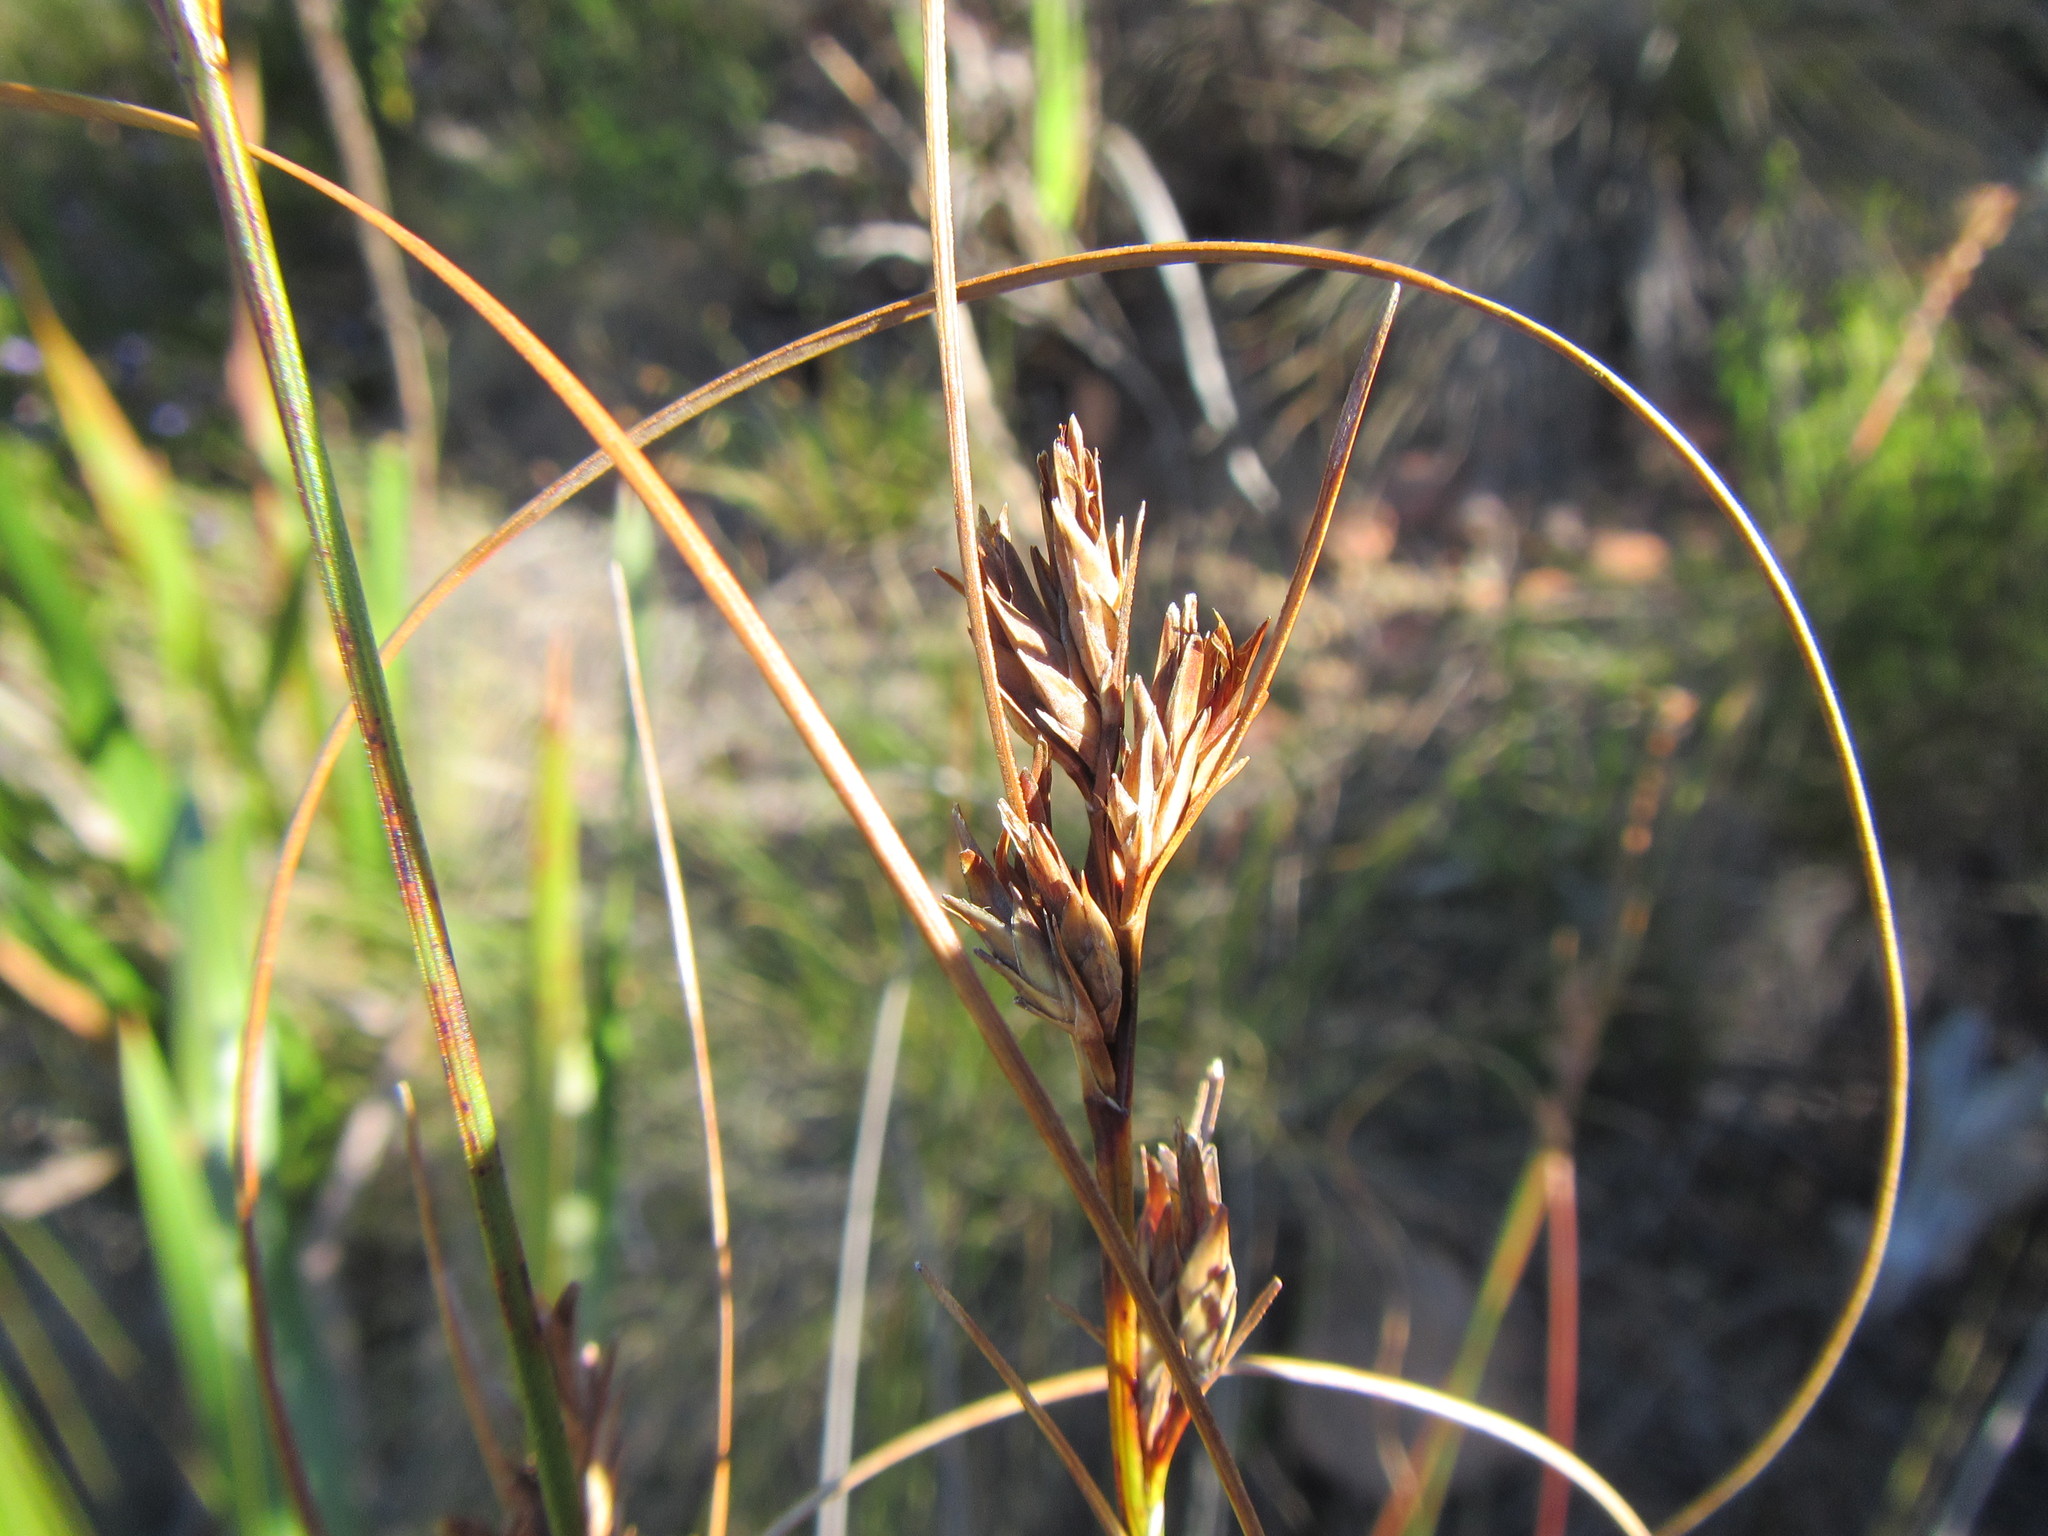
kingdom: Plantae
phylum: Tracheophyta
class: Liliopsida
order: Poales
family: Cyperaceae
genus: Schoenus
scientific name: Schoenus compar
